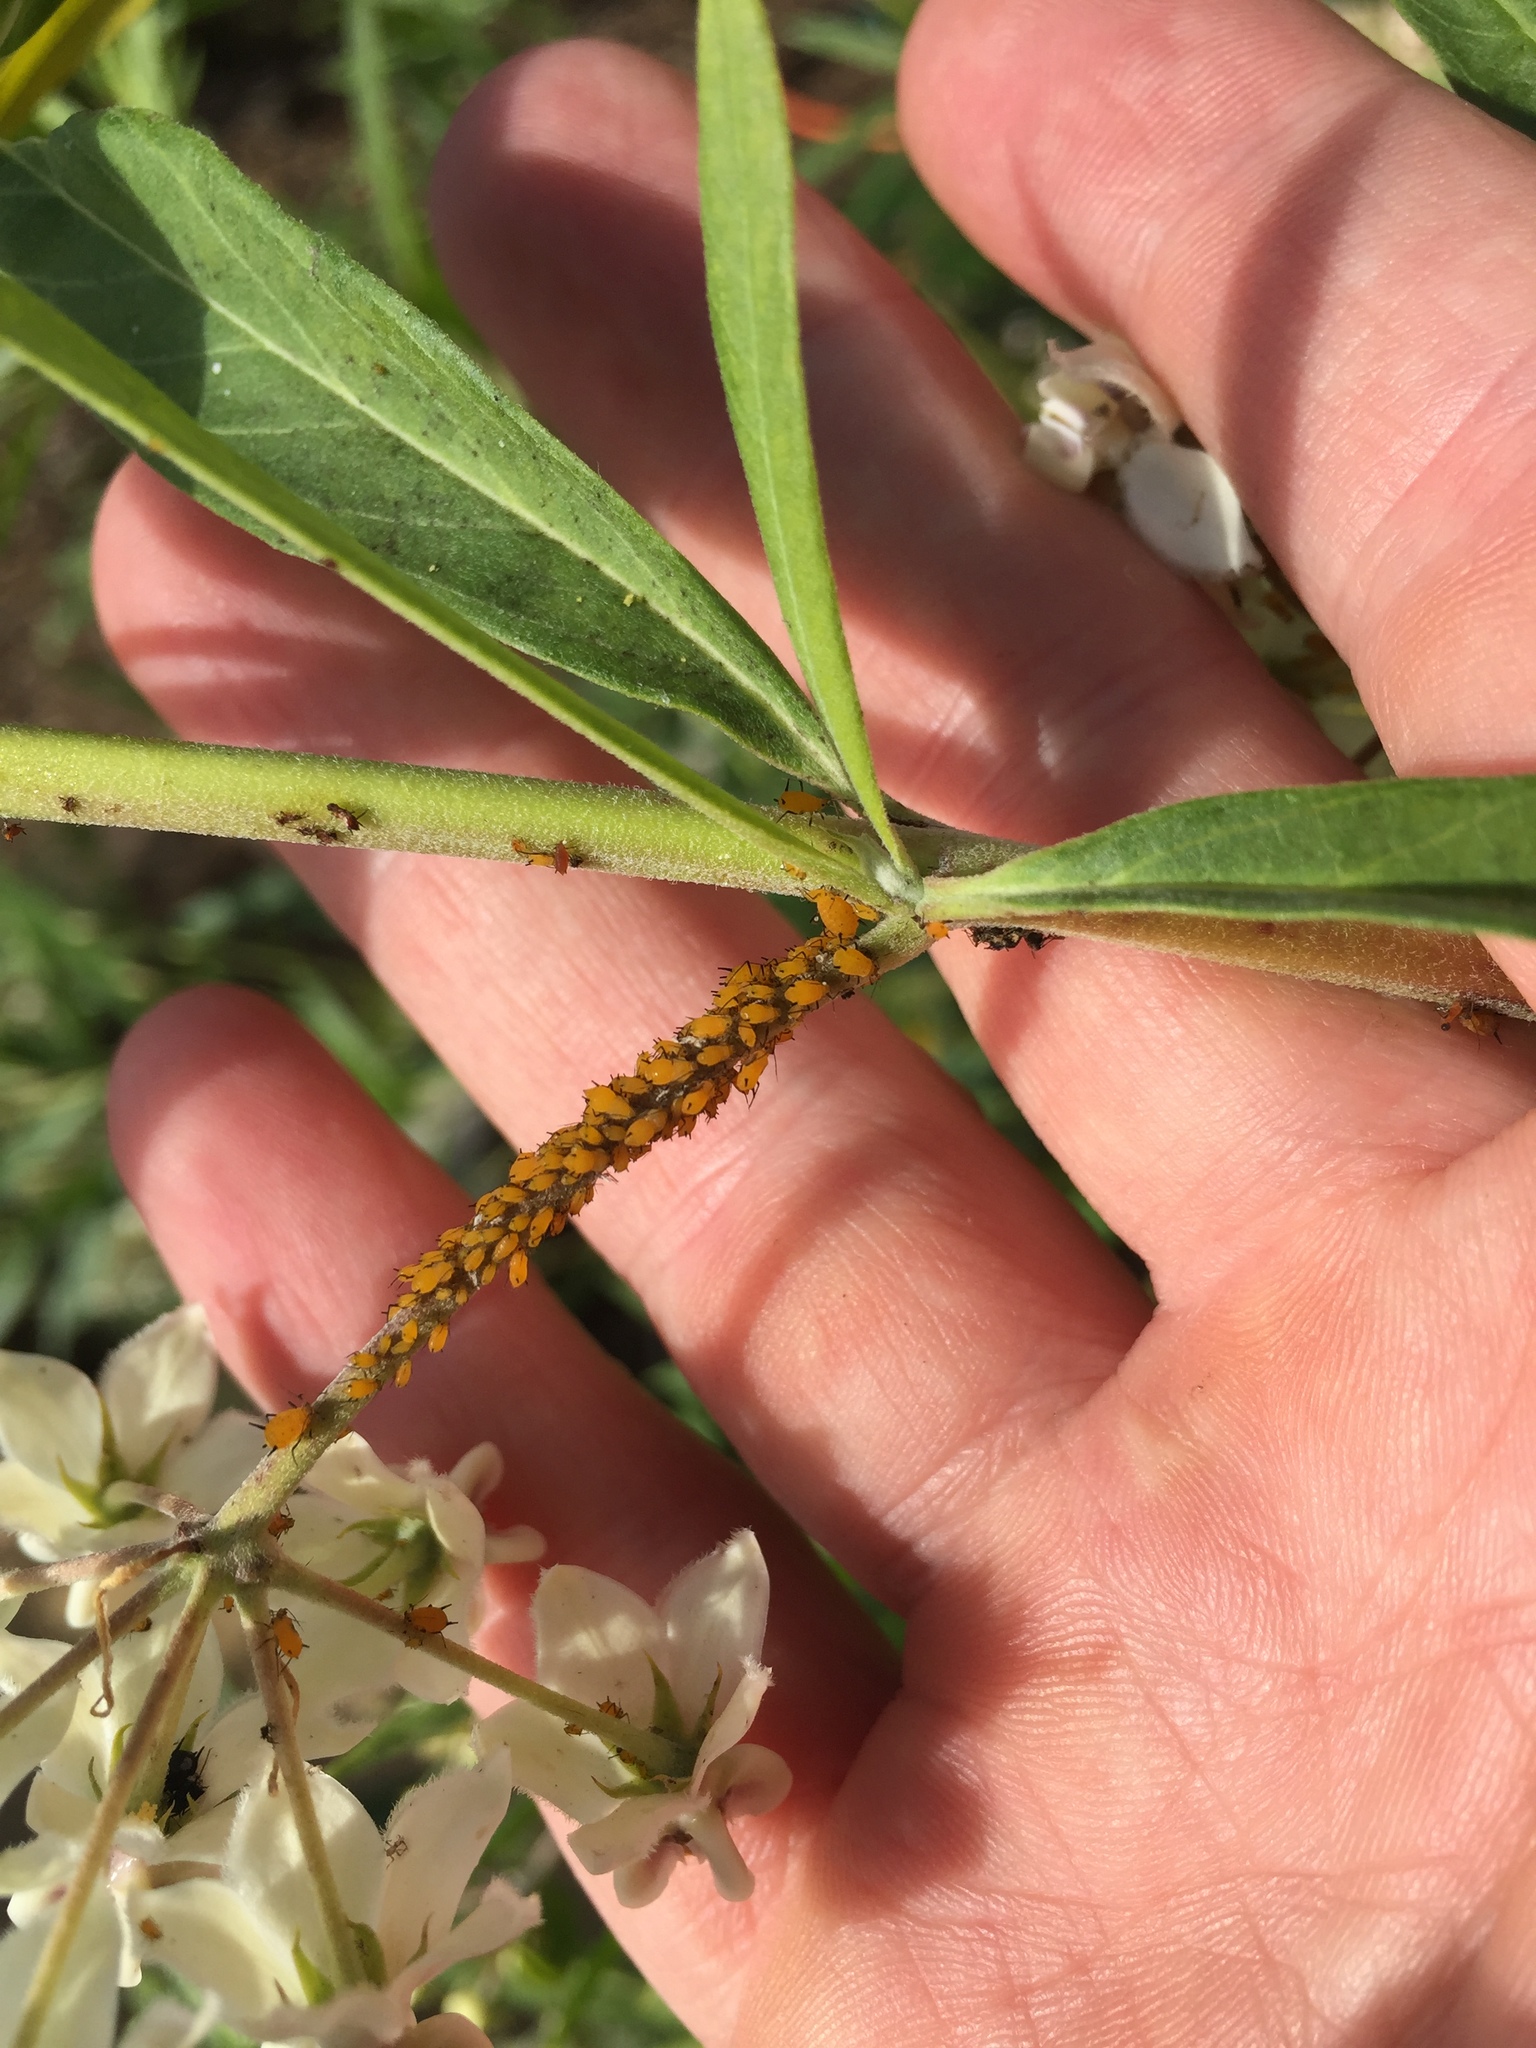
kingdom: Animalia
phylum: Arthropoda
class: Insecta
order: Hemiptera
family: Aphididae
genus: Aphis
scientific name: Aphis nerii
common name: Oleander aphid
